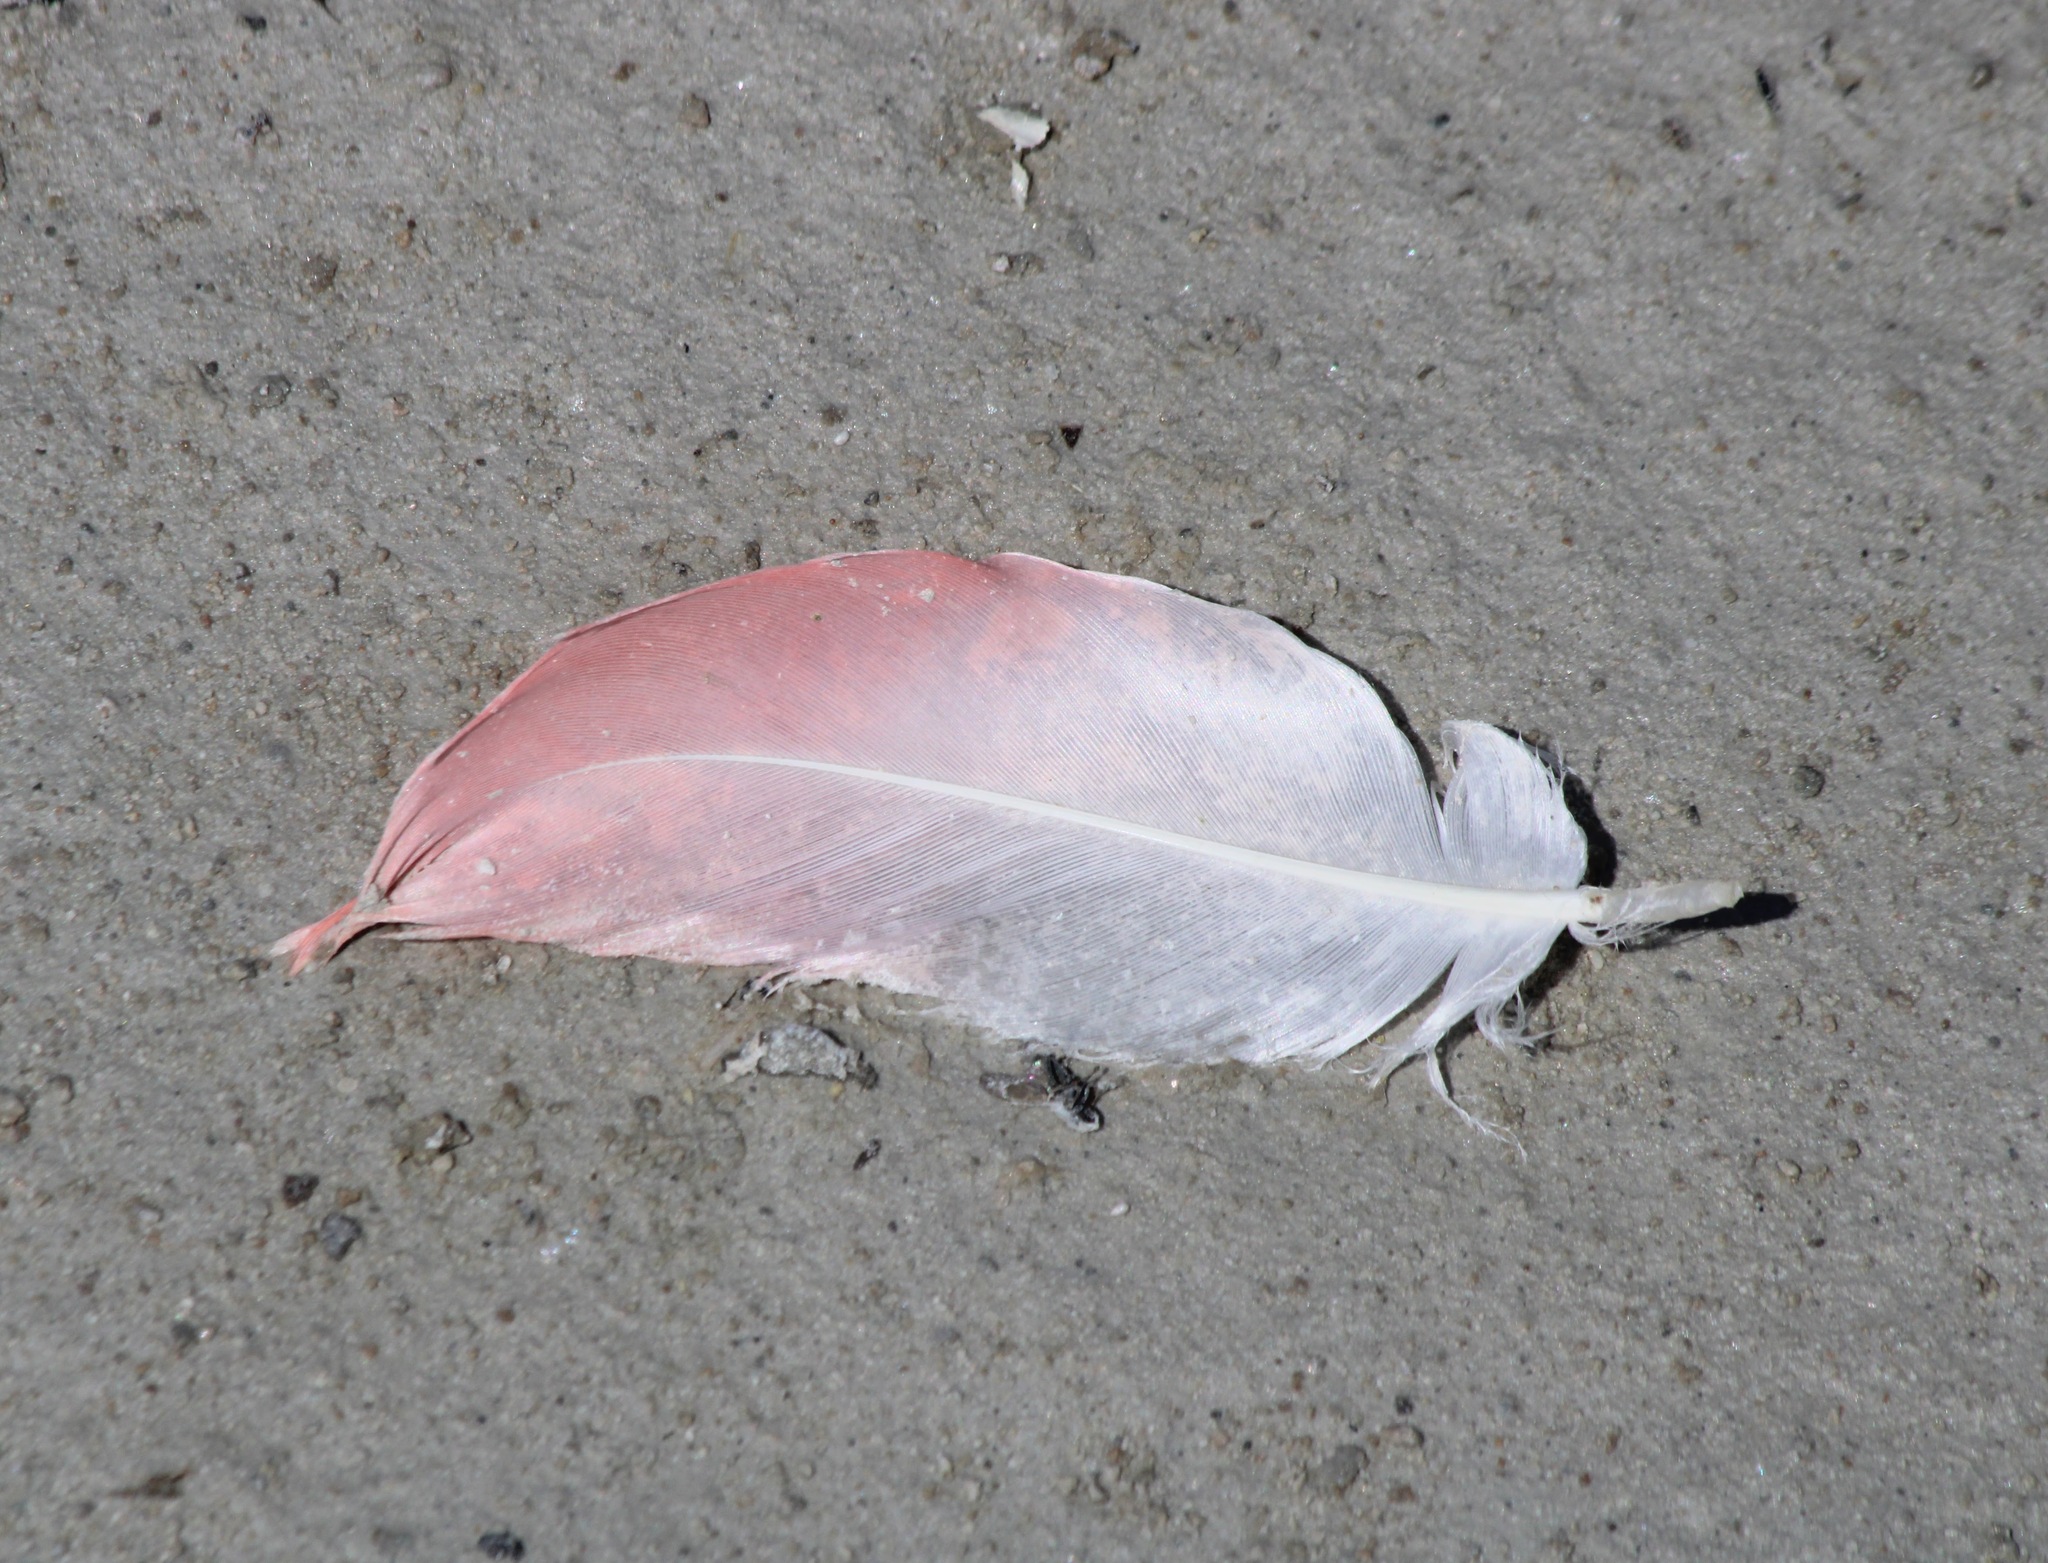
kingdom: Animalia
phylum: Chordata
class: Aves
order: Phoenicopteriformes
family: Phoenicopteridae
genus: Phoenicopterus
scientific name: Phoenicopterus roseus
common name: Greater flamingo
